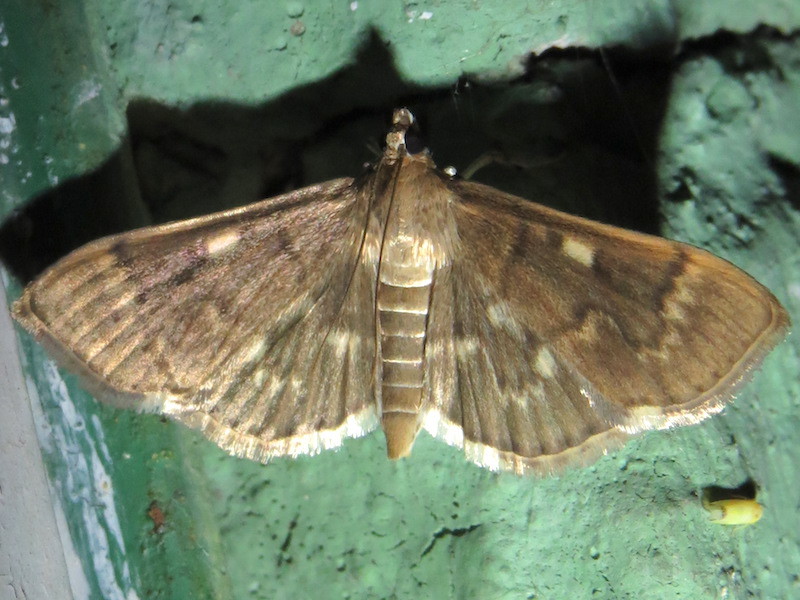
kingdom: Animalia
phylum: Arthropoda
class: Insecta
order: Lepidoptera
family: Crambidae
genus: Herpetogramma
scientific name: Herpetogramma aeglealis
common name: Serpentine webworm moth
